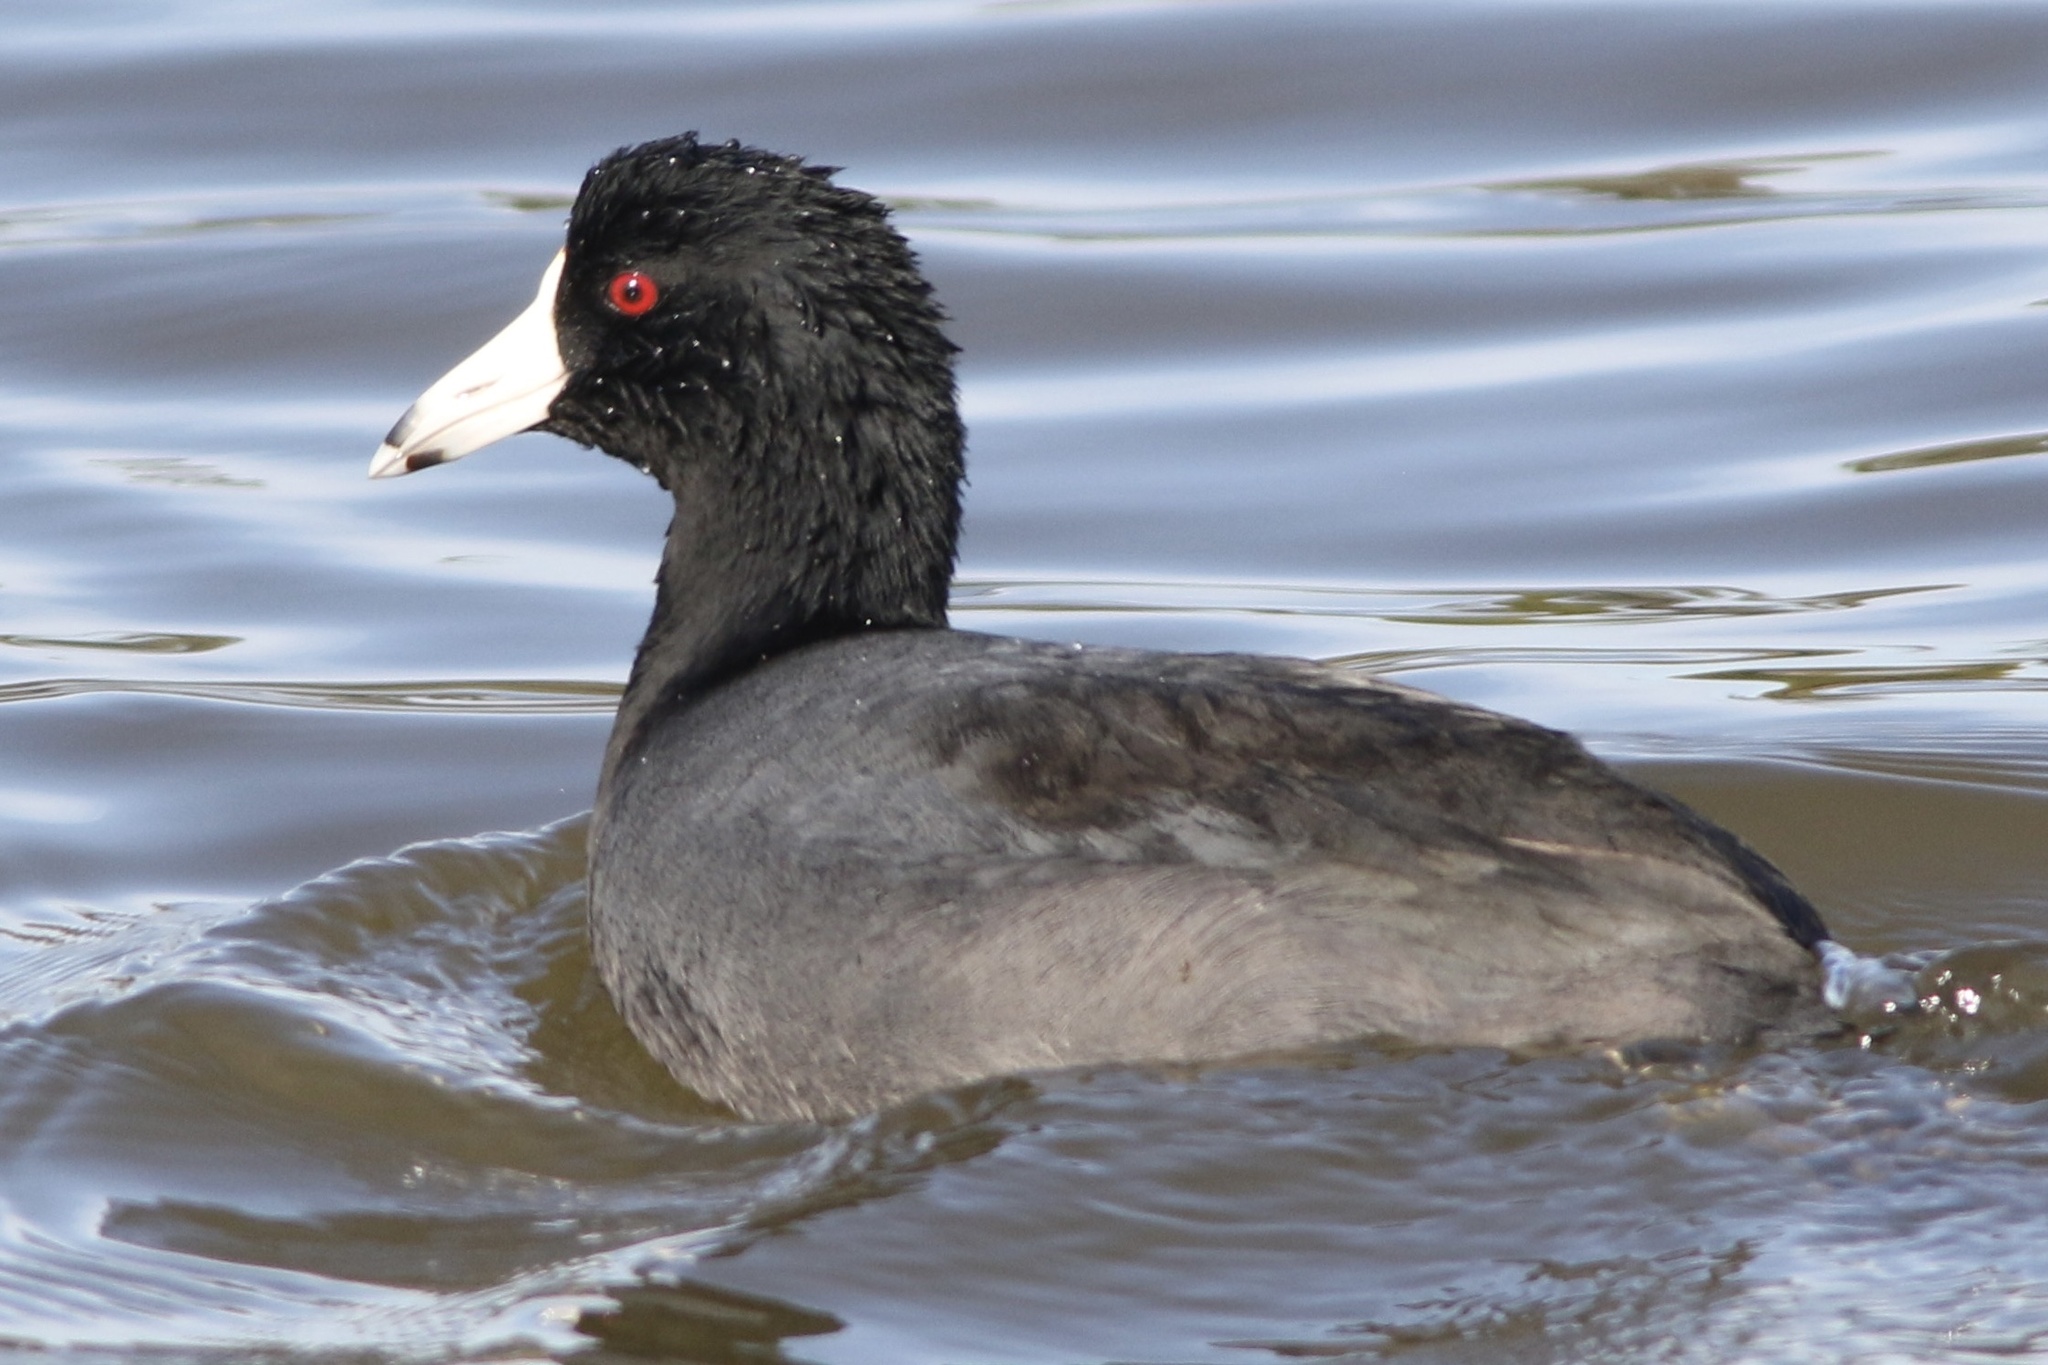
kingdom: Animalia
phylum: Chordata
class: Aves
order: Gruiformes
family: Rallidae
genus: Fulica
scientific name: Fulica americana
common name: American coot
